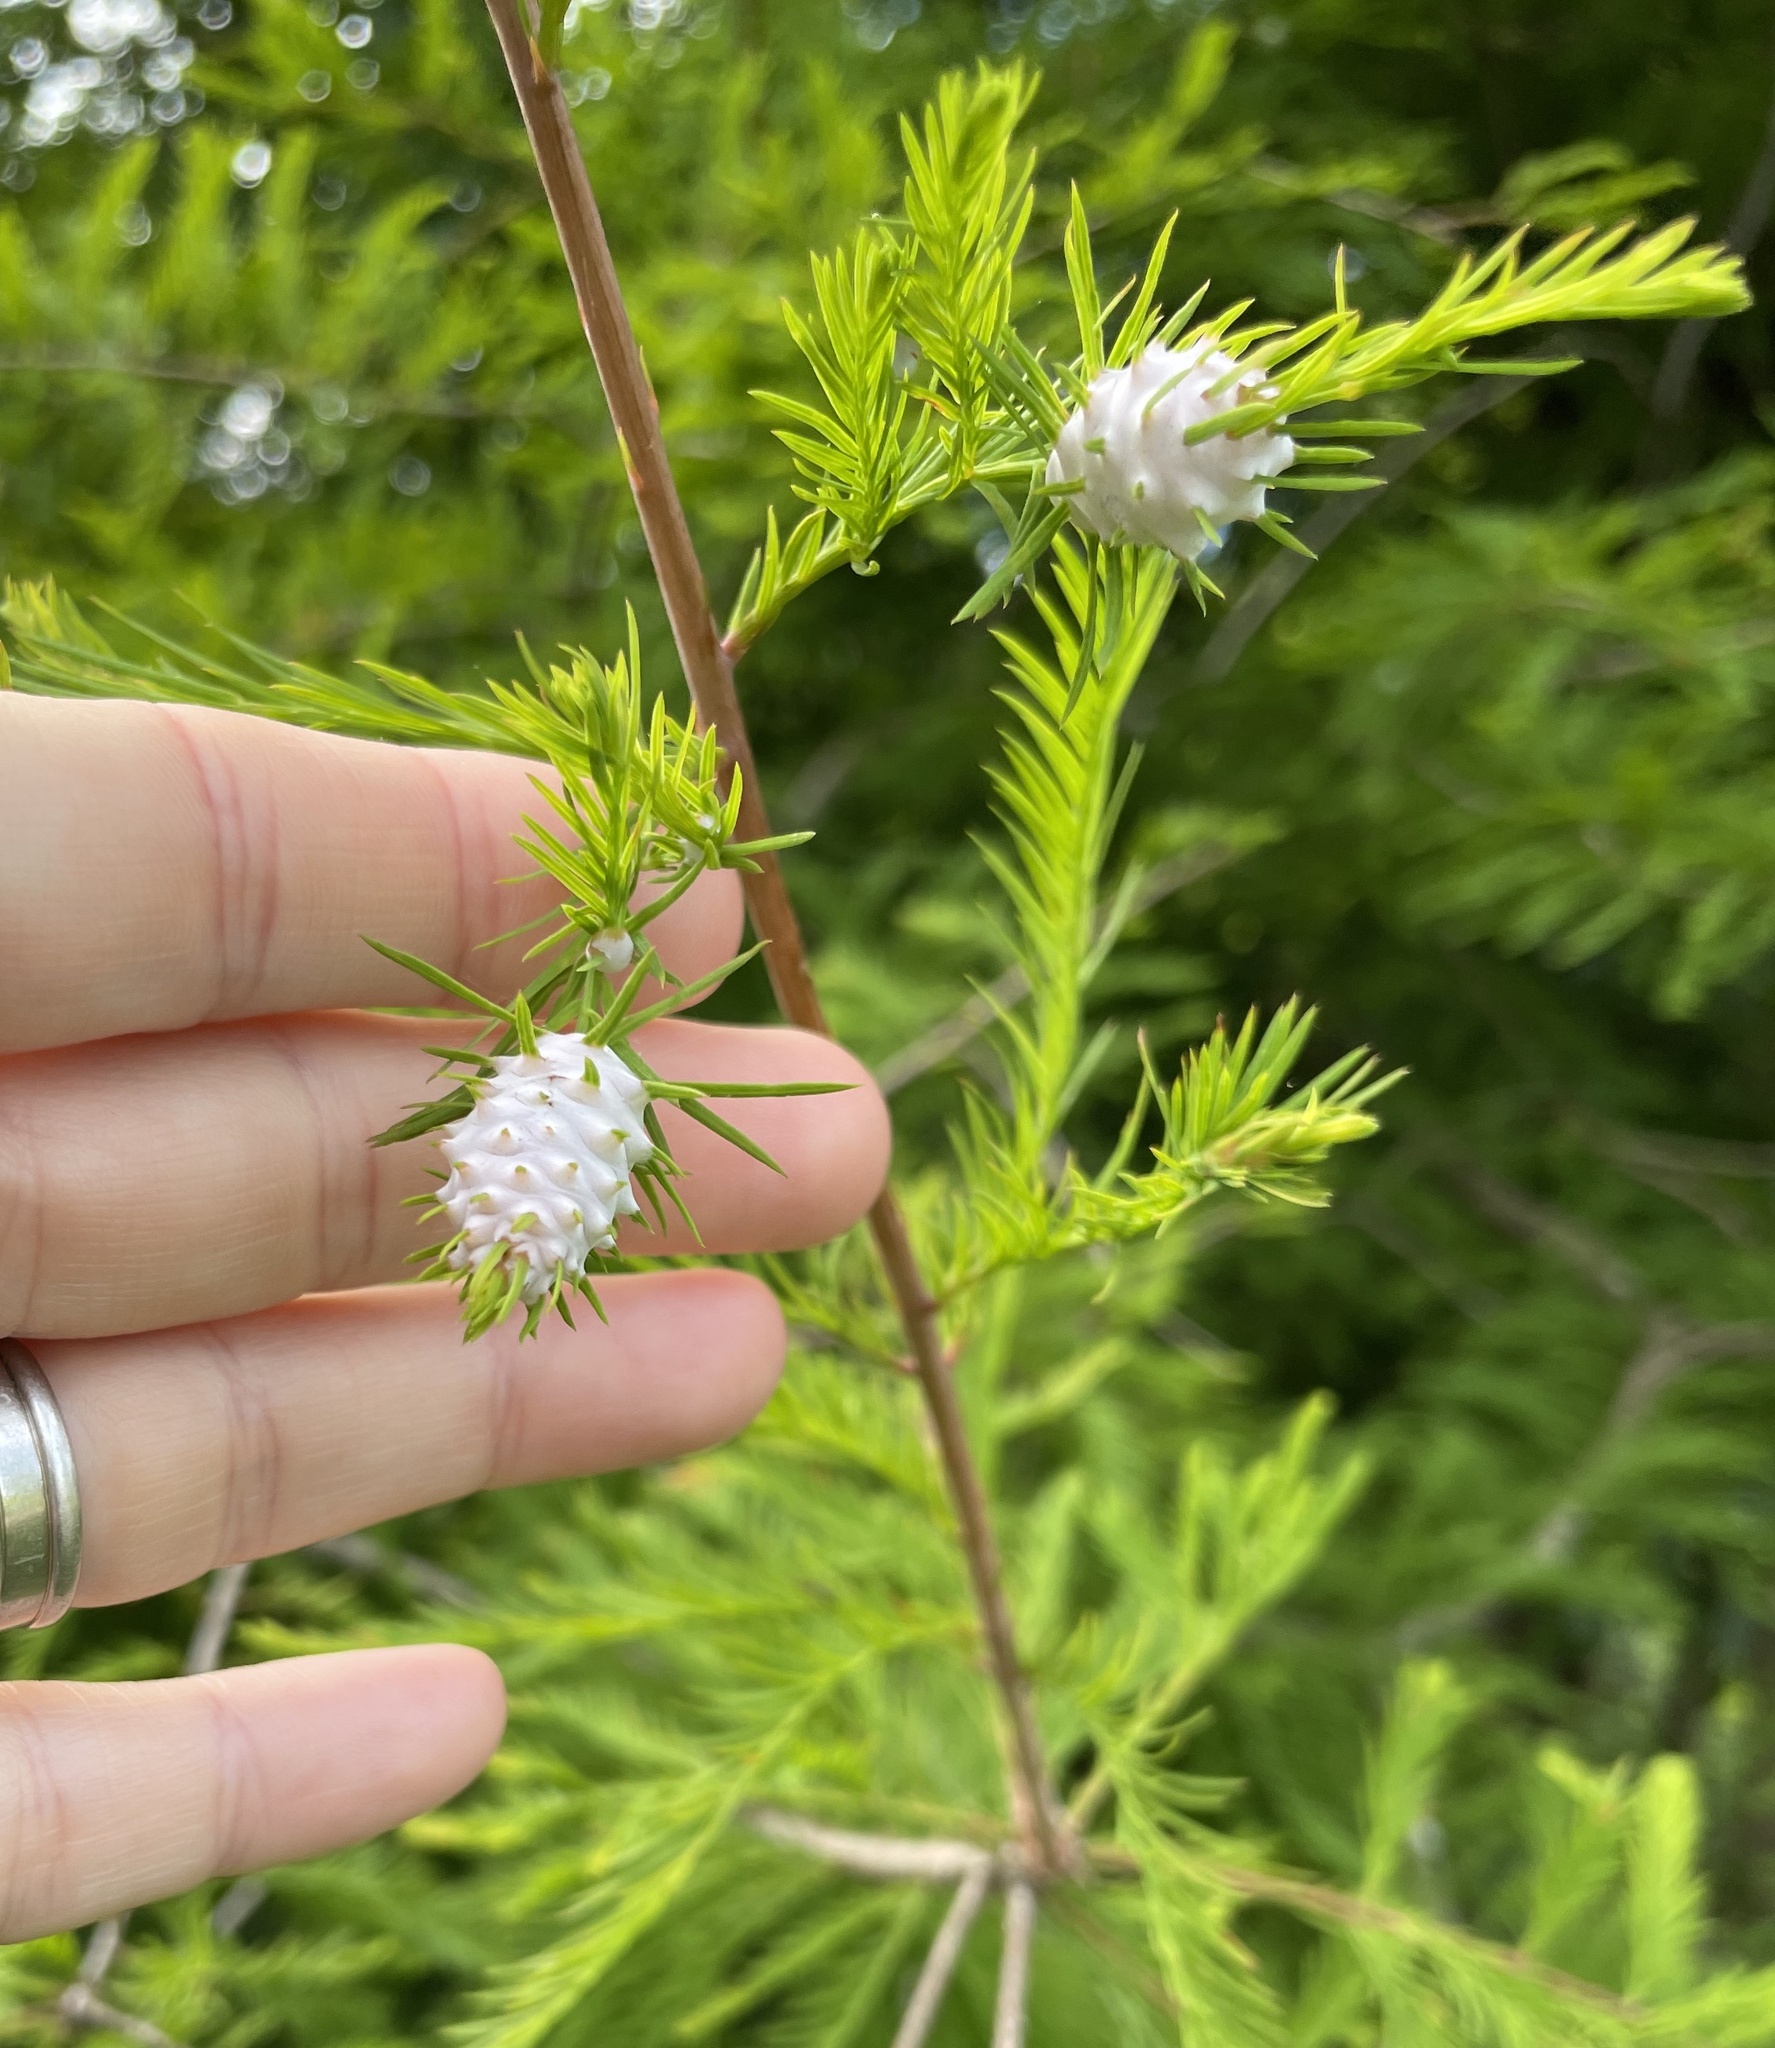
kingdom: Animalia
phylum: Arthropoda
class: Insecta
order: Diptera
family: Cecidomyiidae
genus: Taxodiomyia
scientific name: Taxodiomyia cupressiananassa
